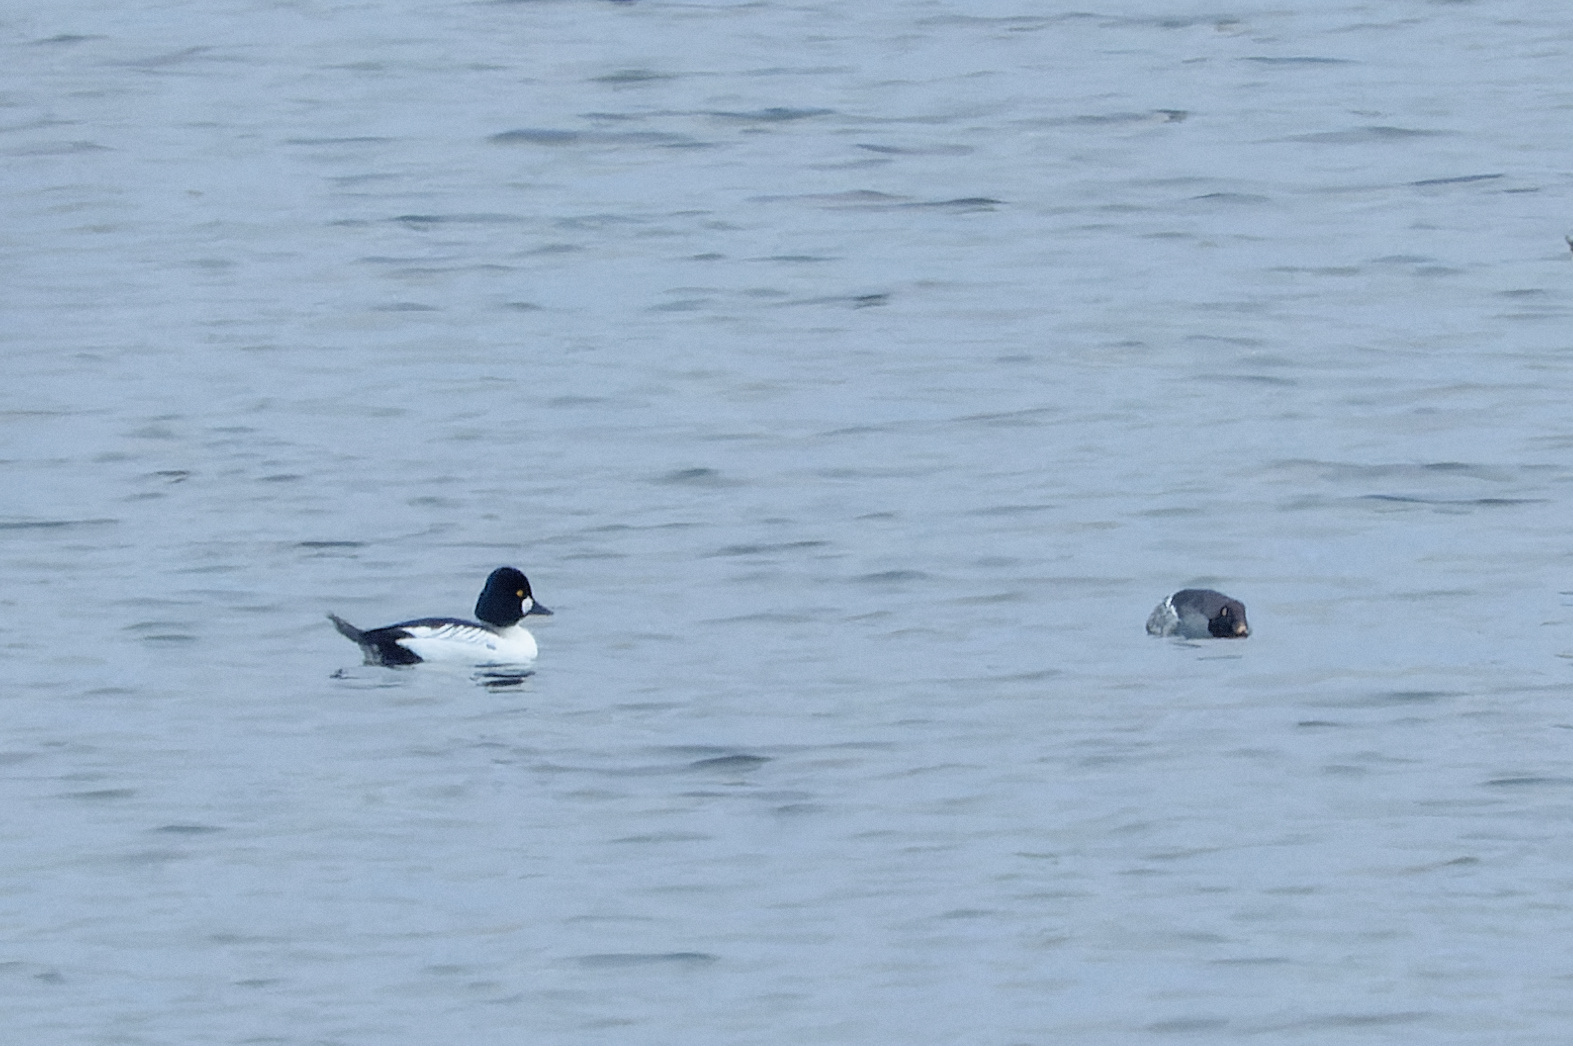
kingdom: Animalia
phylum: Chordata
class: Aves
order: Anseriformes
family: Anatidae
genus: Bucephala
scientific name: Bucephala clangula
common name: Common goldeneye
